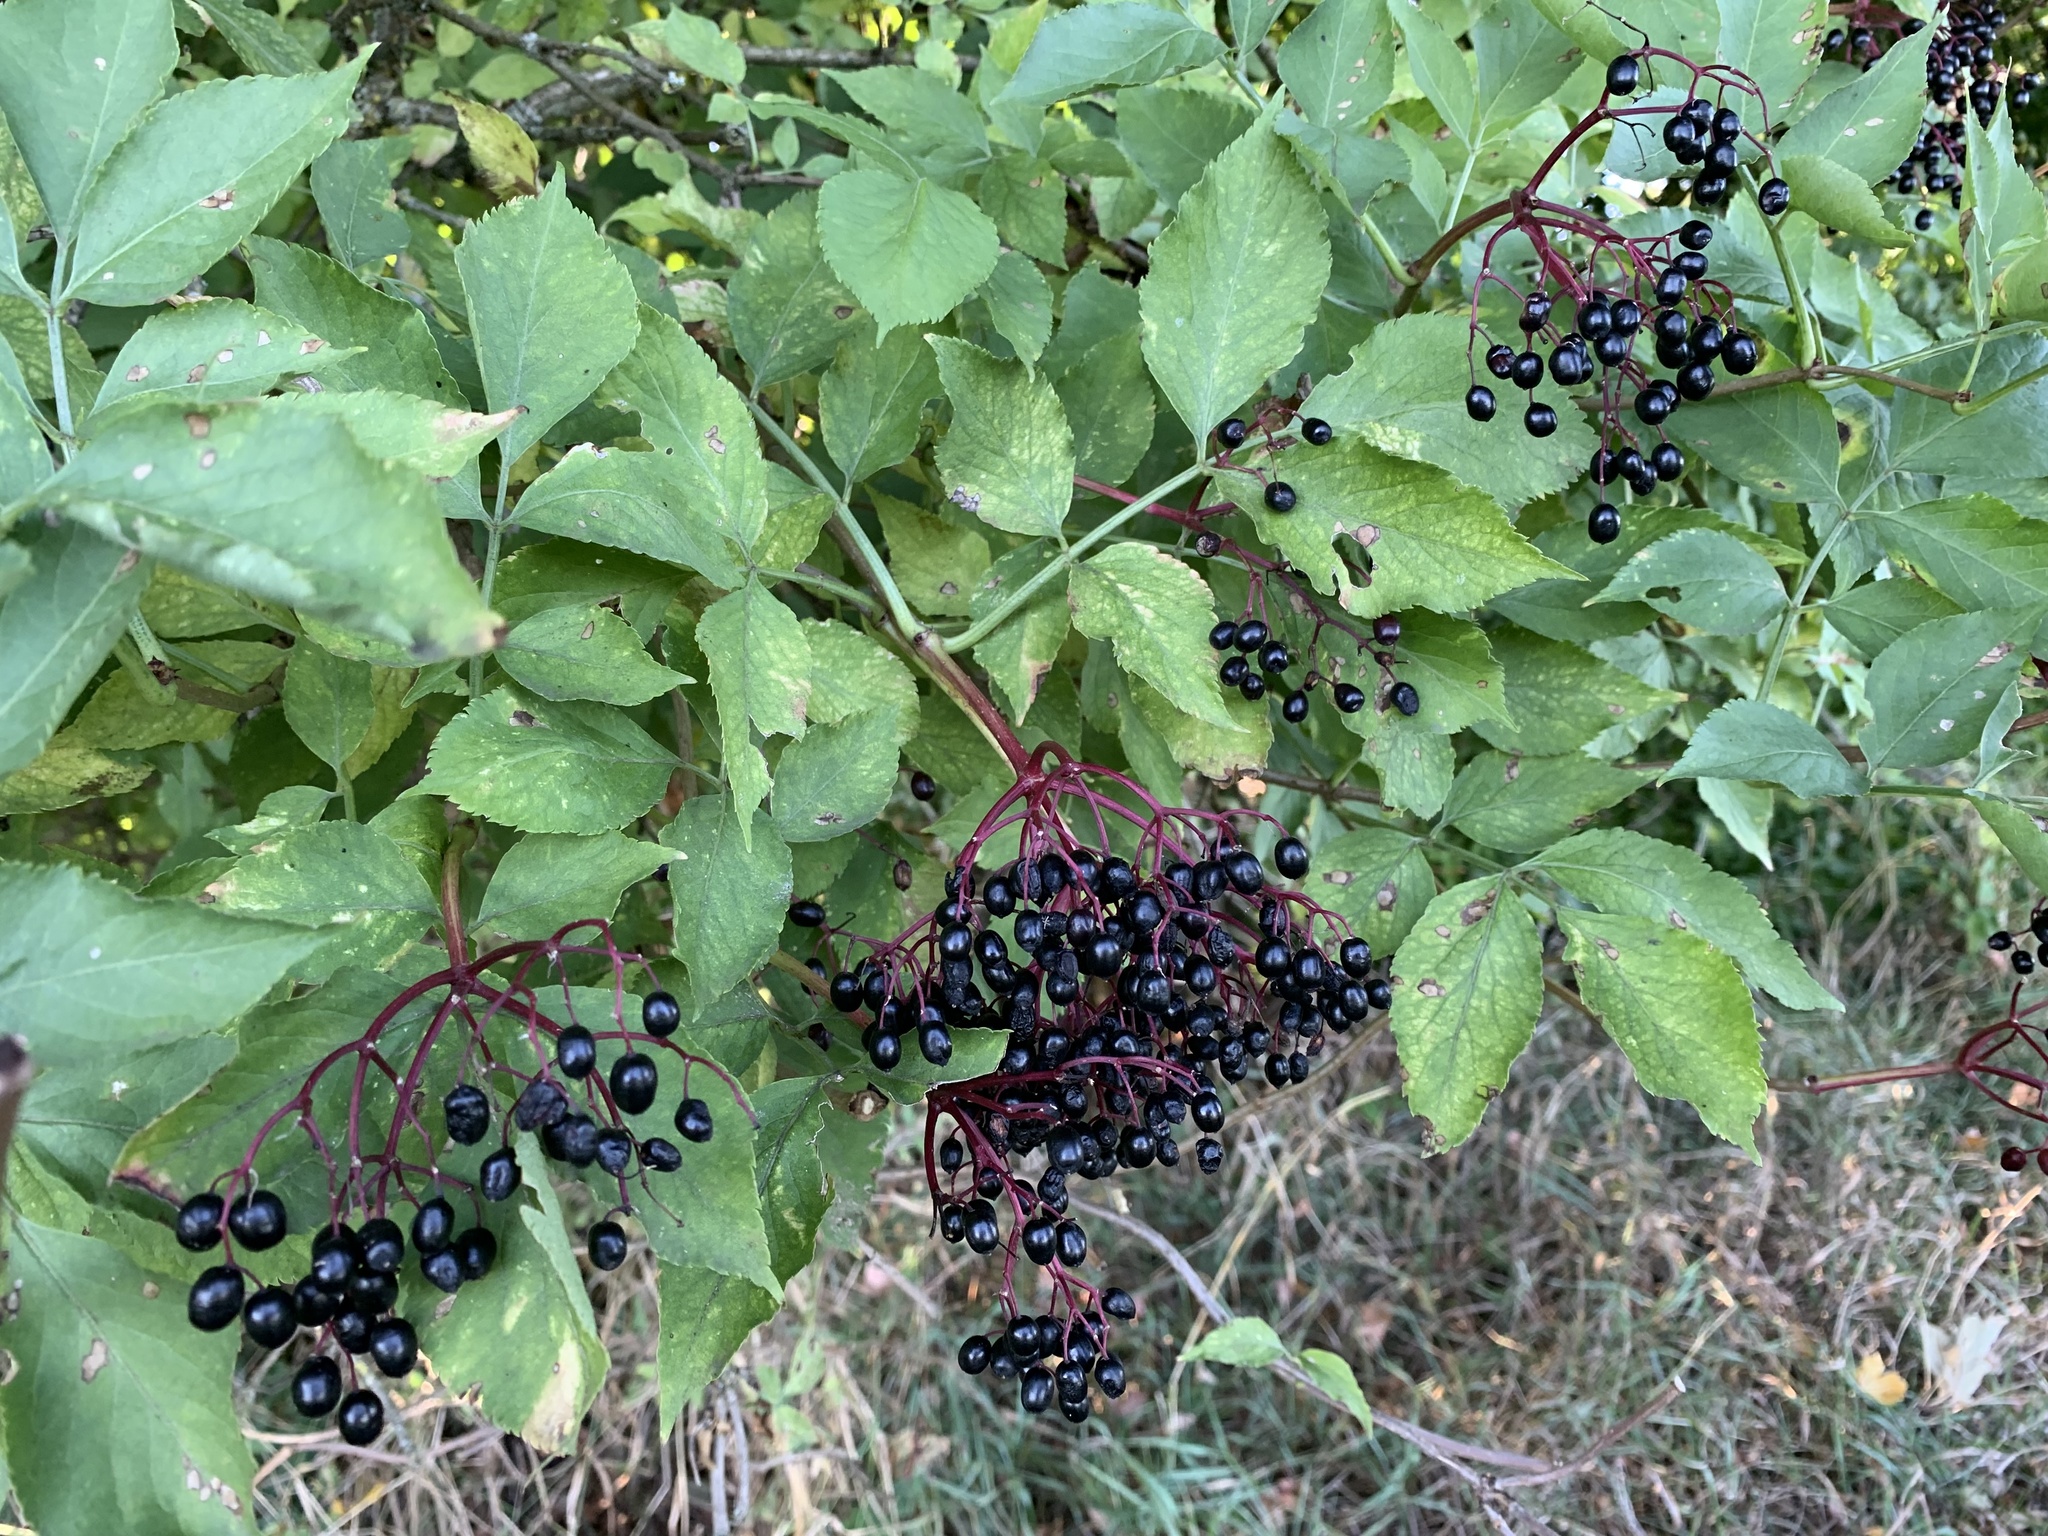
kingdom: Plantae
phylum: Tracheophyta
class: Magnoliopsida
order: Dipsacales
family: Viburnaceae
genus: Sambucus
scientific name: Sambucus nigra
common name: Elder
